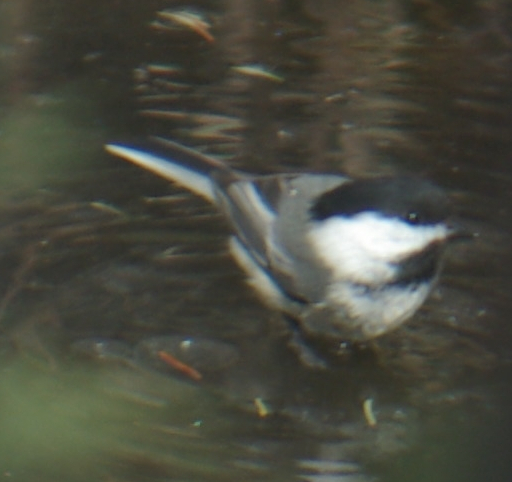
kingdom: Animalia
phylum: Chordata
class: Aves
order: Passeriformes
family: Paridae
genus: Poecile
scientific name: Poecile atricapillus
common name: Black-capped chickadee
